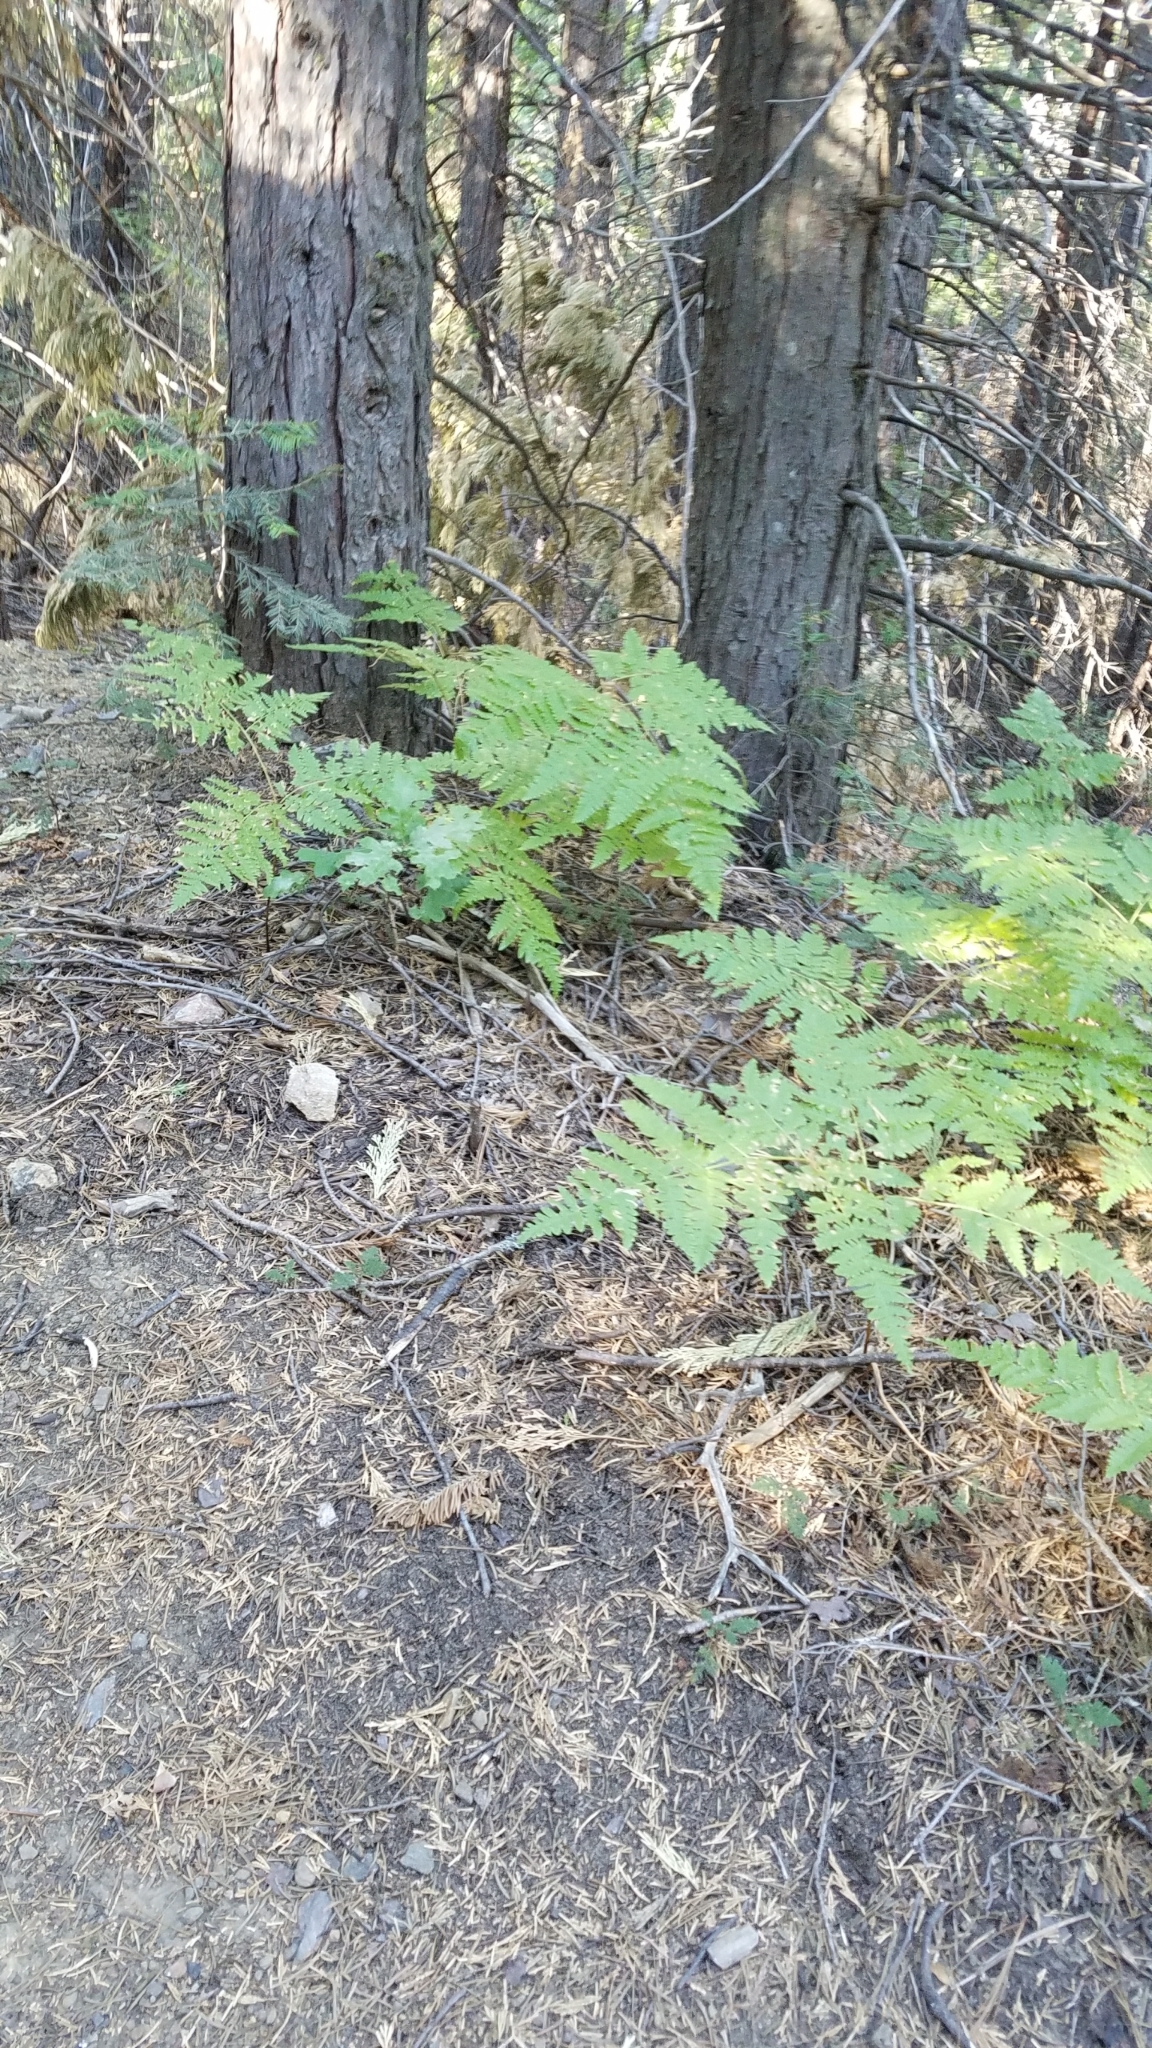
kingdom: Plantae
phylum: Tracheophyta
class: Polypodiopsida
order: Polypodiales
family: Dennstaedtiaceae
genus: Pteridium
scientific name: Pteridium aquilinum
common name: Bracken
